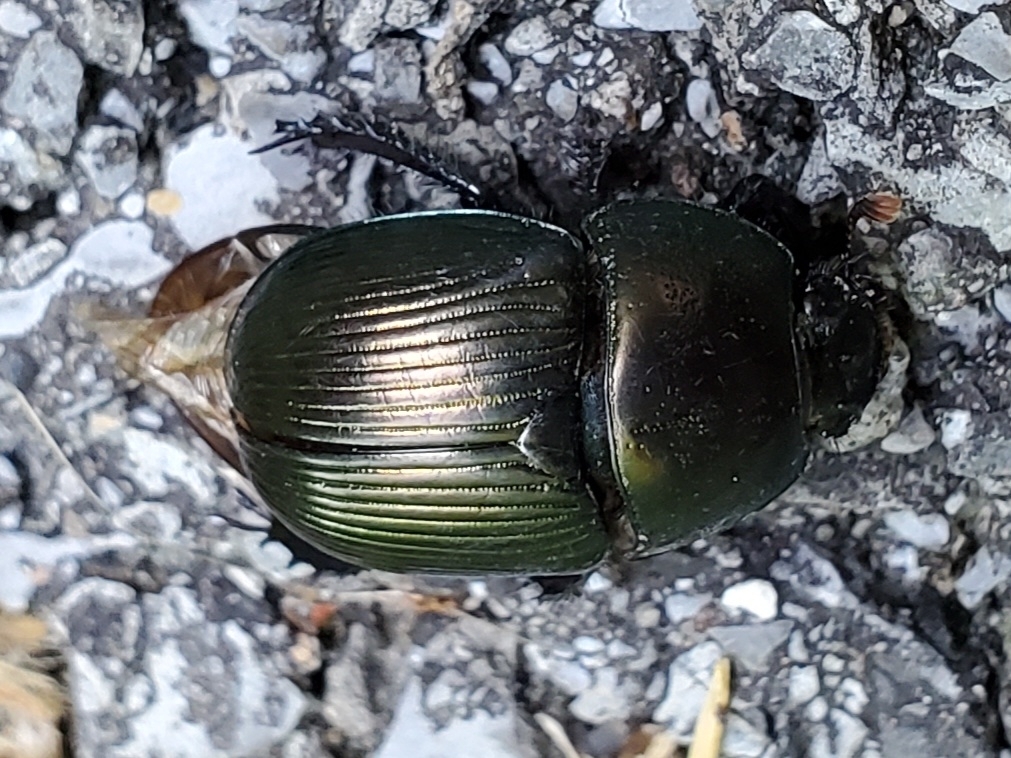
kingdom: Animalia
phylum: Arthropoda
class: Insecta
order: Coleoptera
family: Geotrupidae
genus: Geotrupes
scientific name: Geotrupes splendidus
